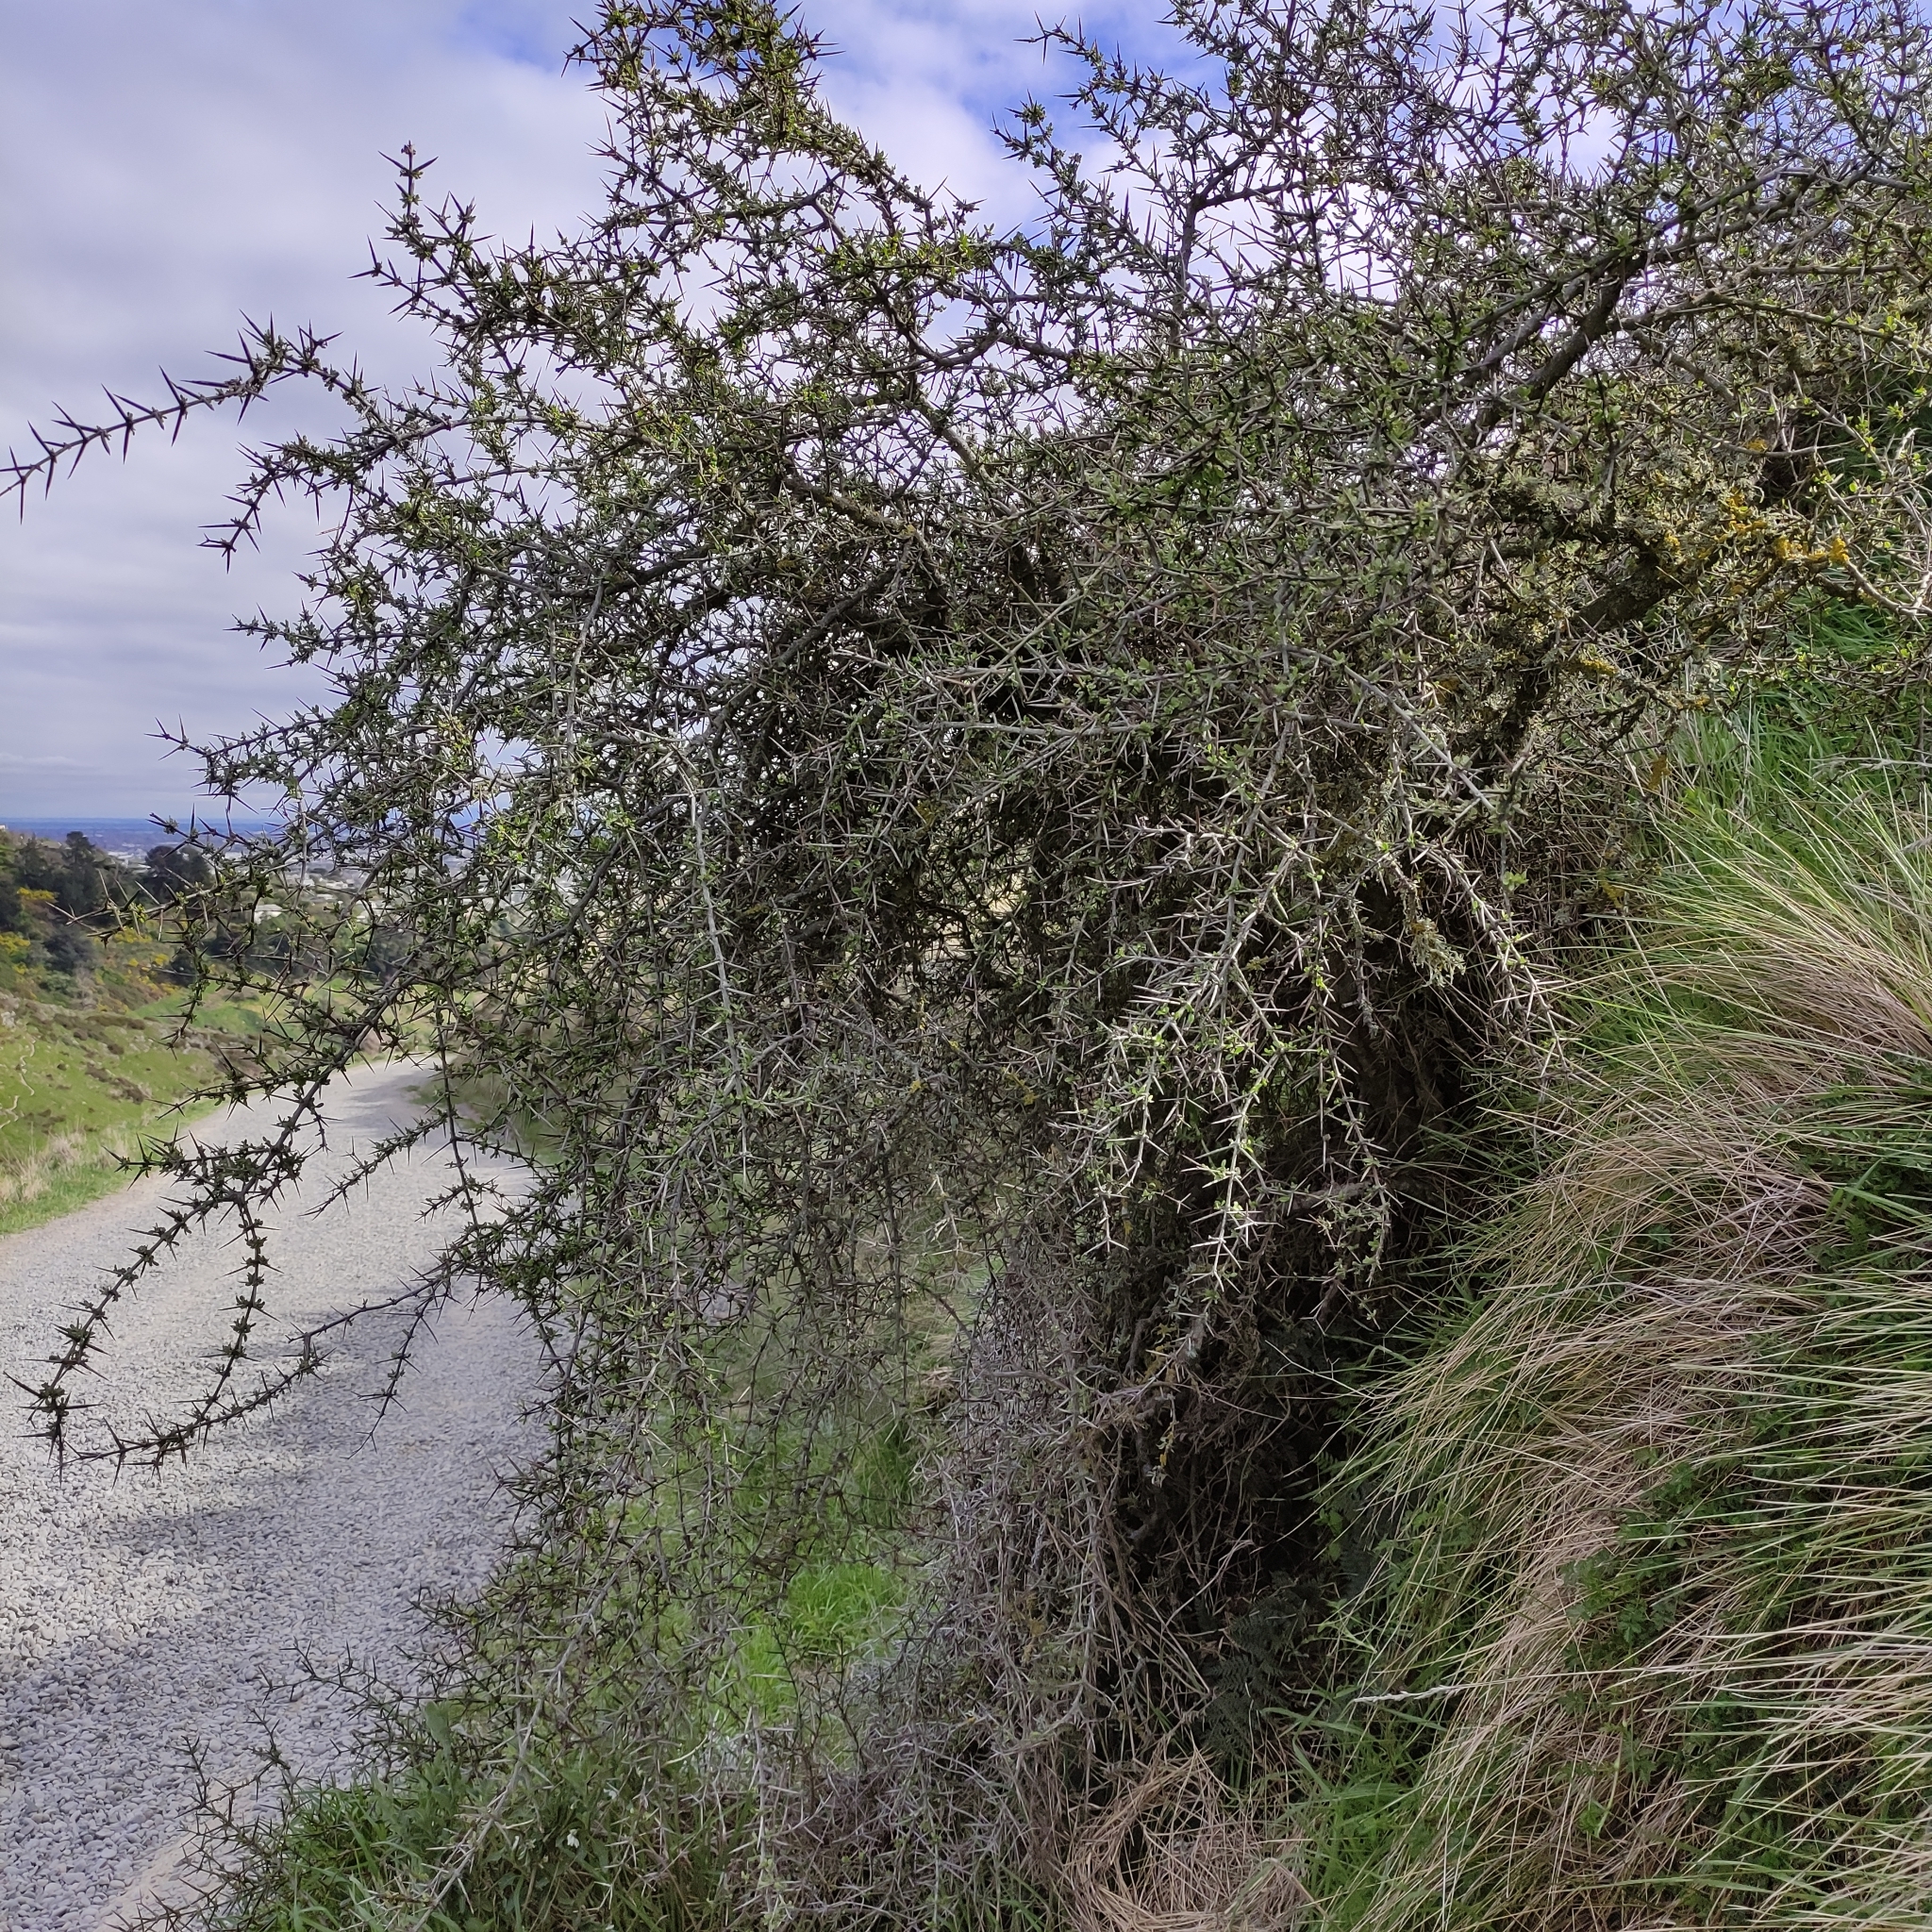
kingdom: Plantae
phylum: Tracheophyta
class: Magnoliopsida
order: Rosales
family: Rhamnaceae
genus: Discaria
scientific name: Discaria toumatou
